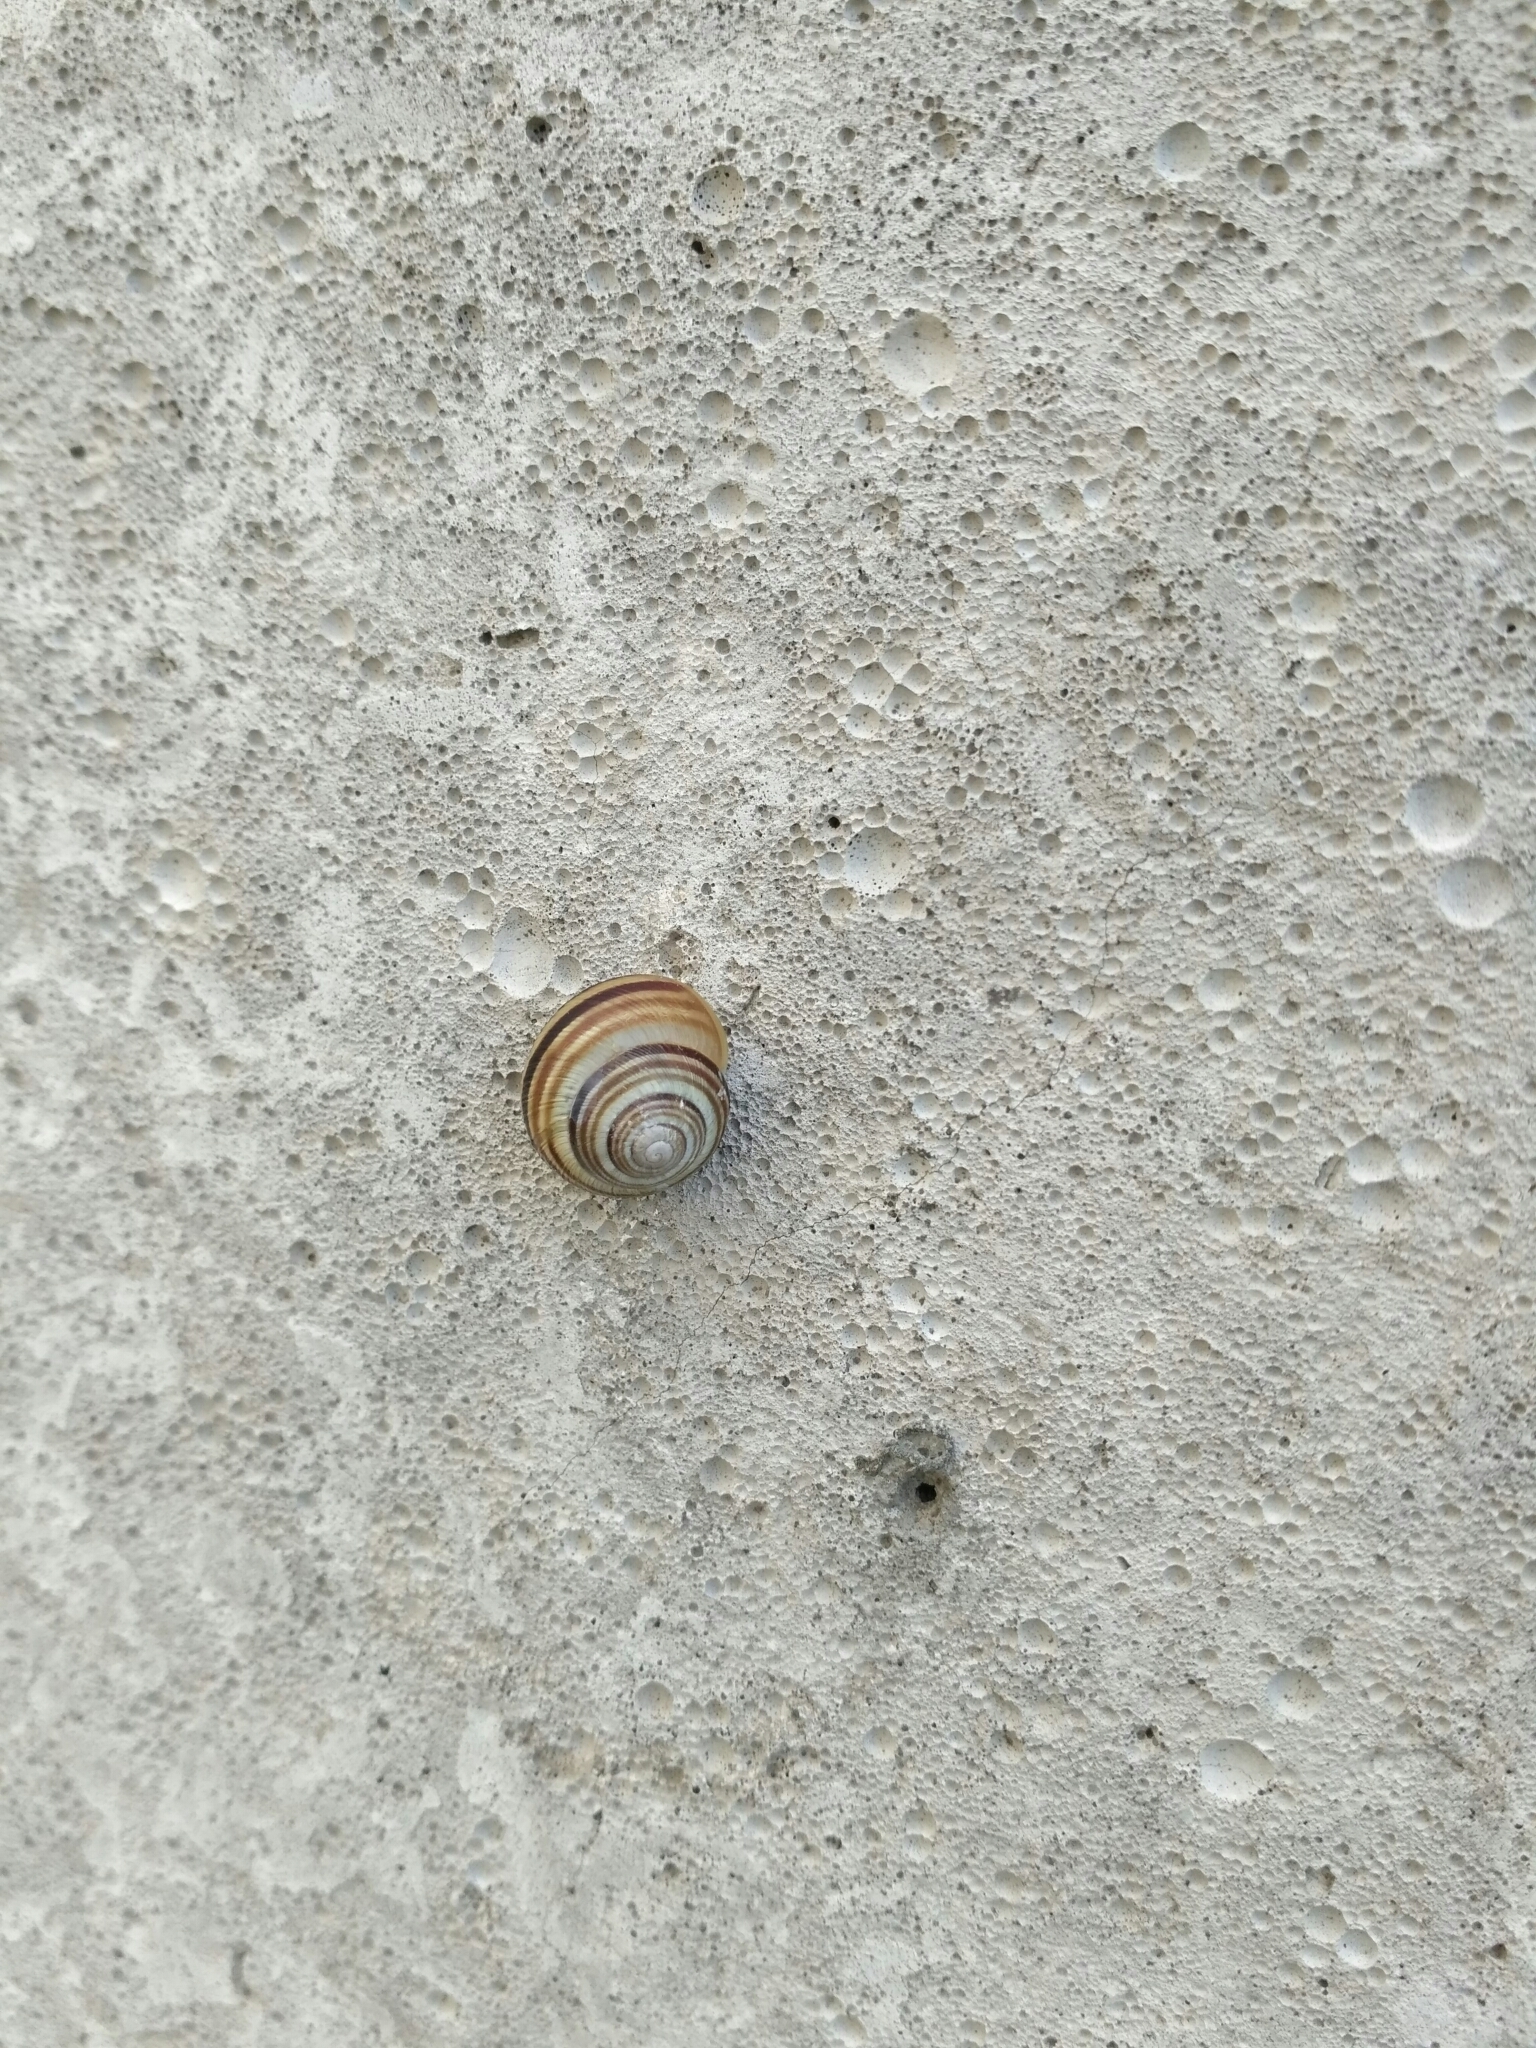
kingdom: Animalia
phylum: Mollusca
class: Gastropoda
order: Stylommatophora
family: Helicidae
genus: Caucasotachea
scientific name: Caucasotachea vindobonensis
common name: European helicid land snail
